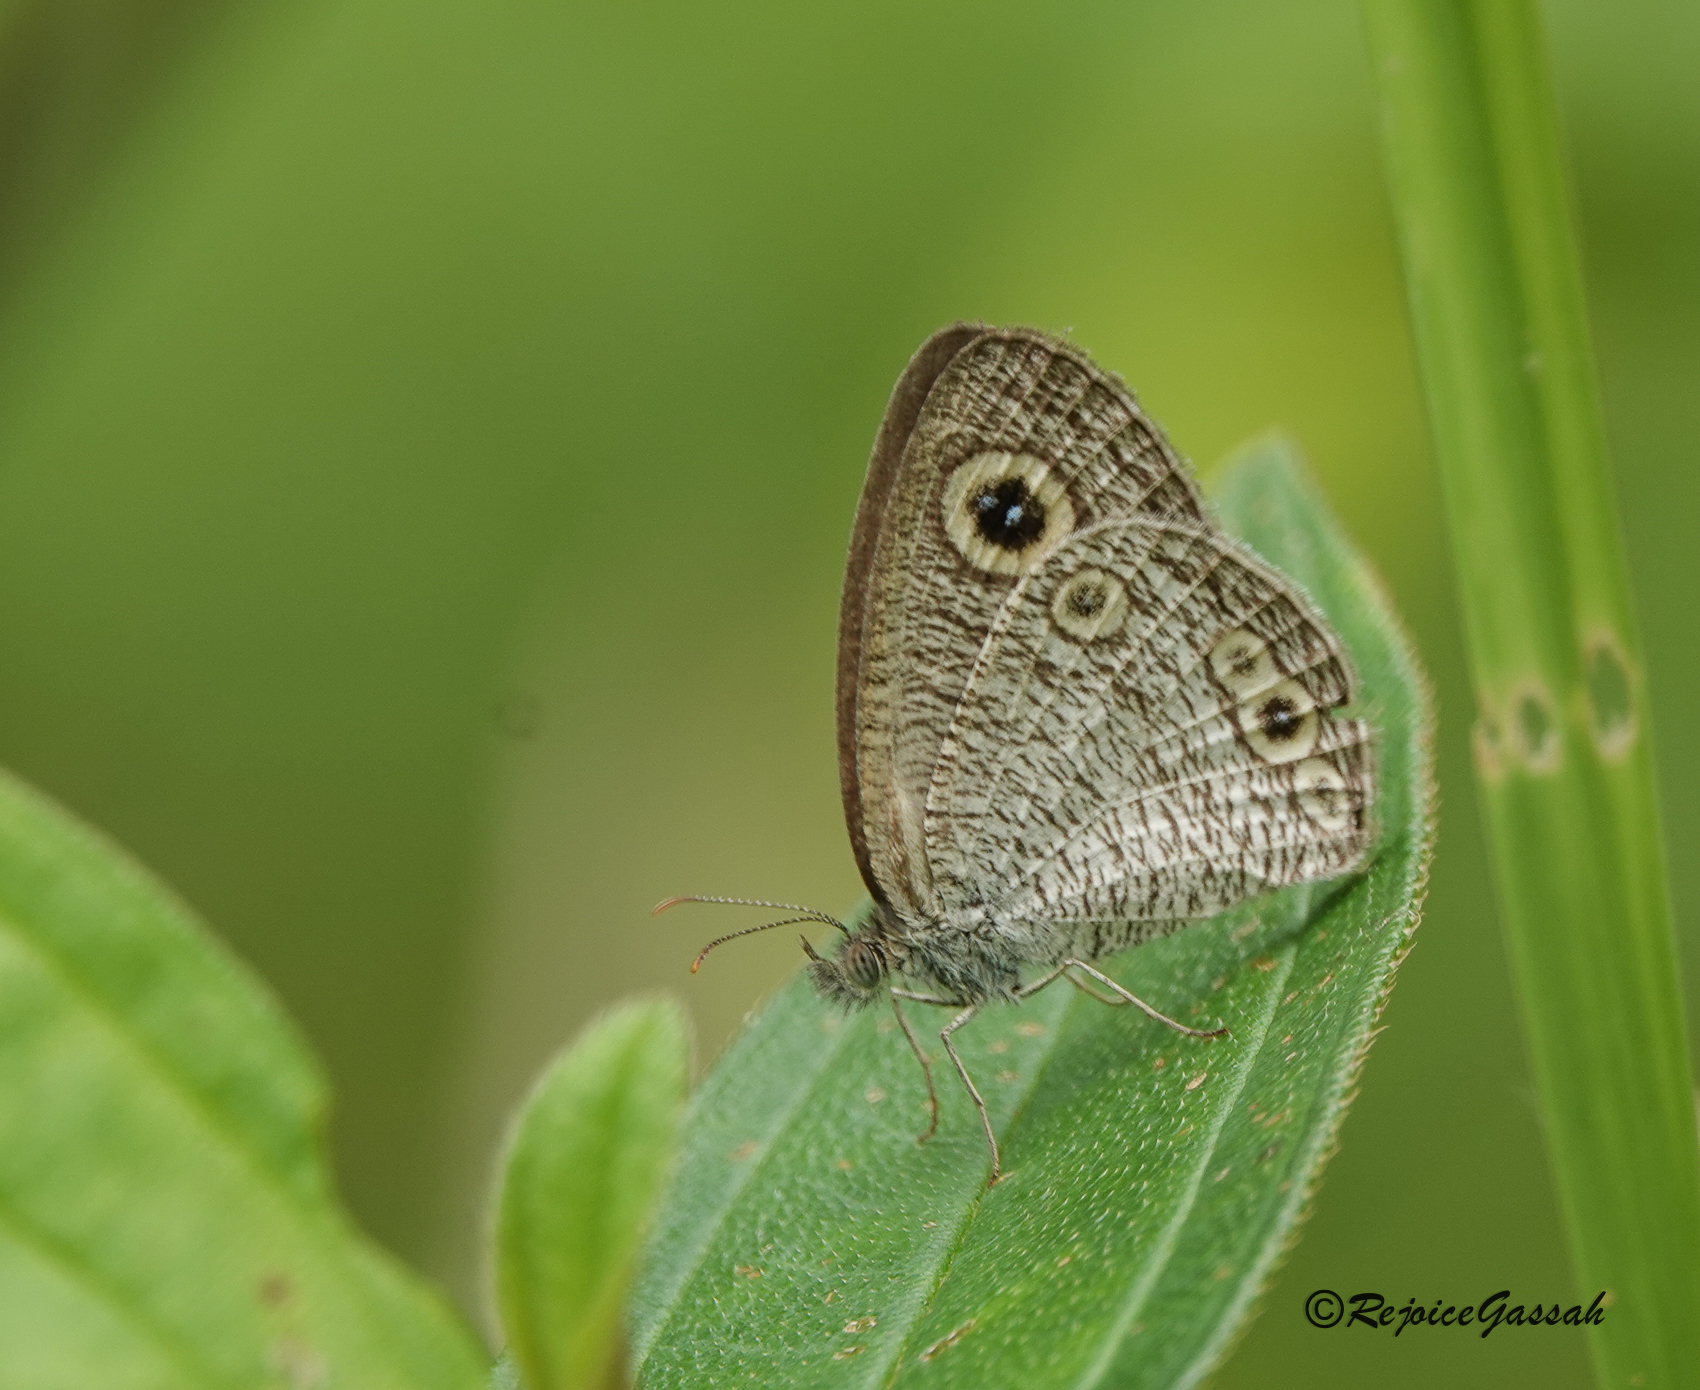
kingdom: Animalia
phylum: Arthropoda
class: Insecta
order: Lepidoptera
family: Nymphalidae
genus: Ypthima
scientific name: Ypthima huebneri
